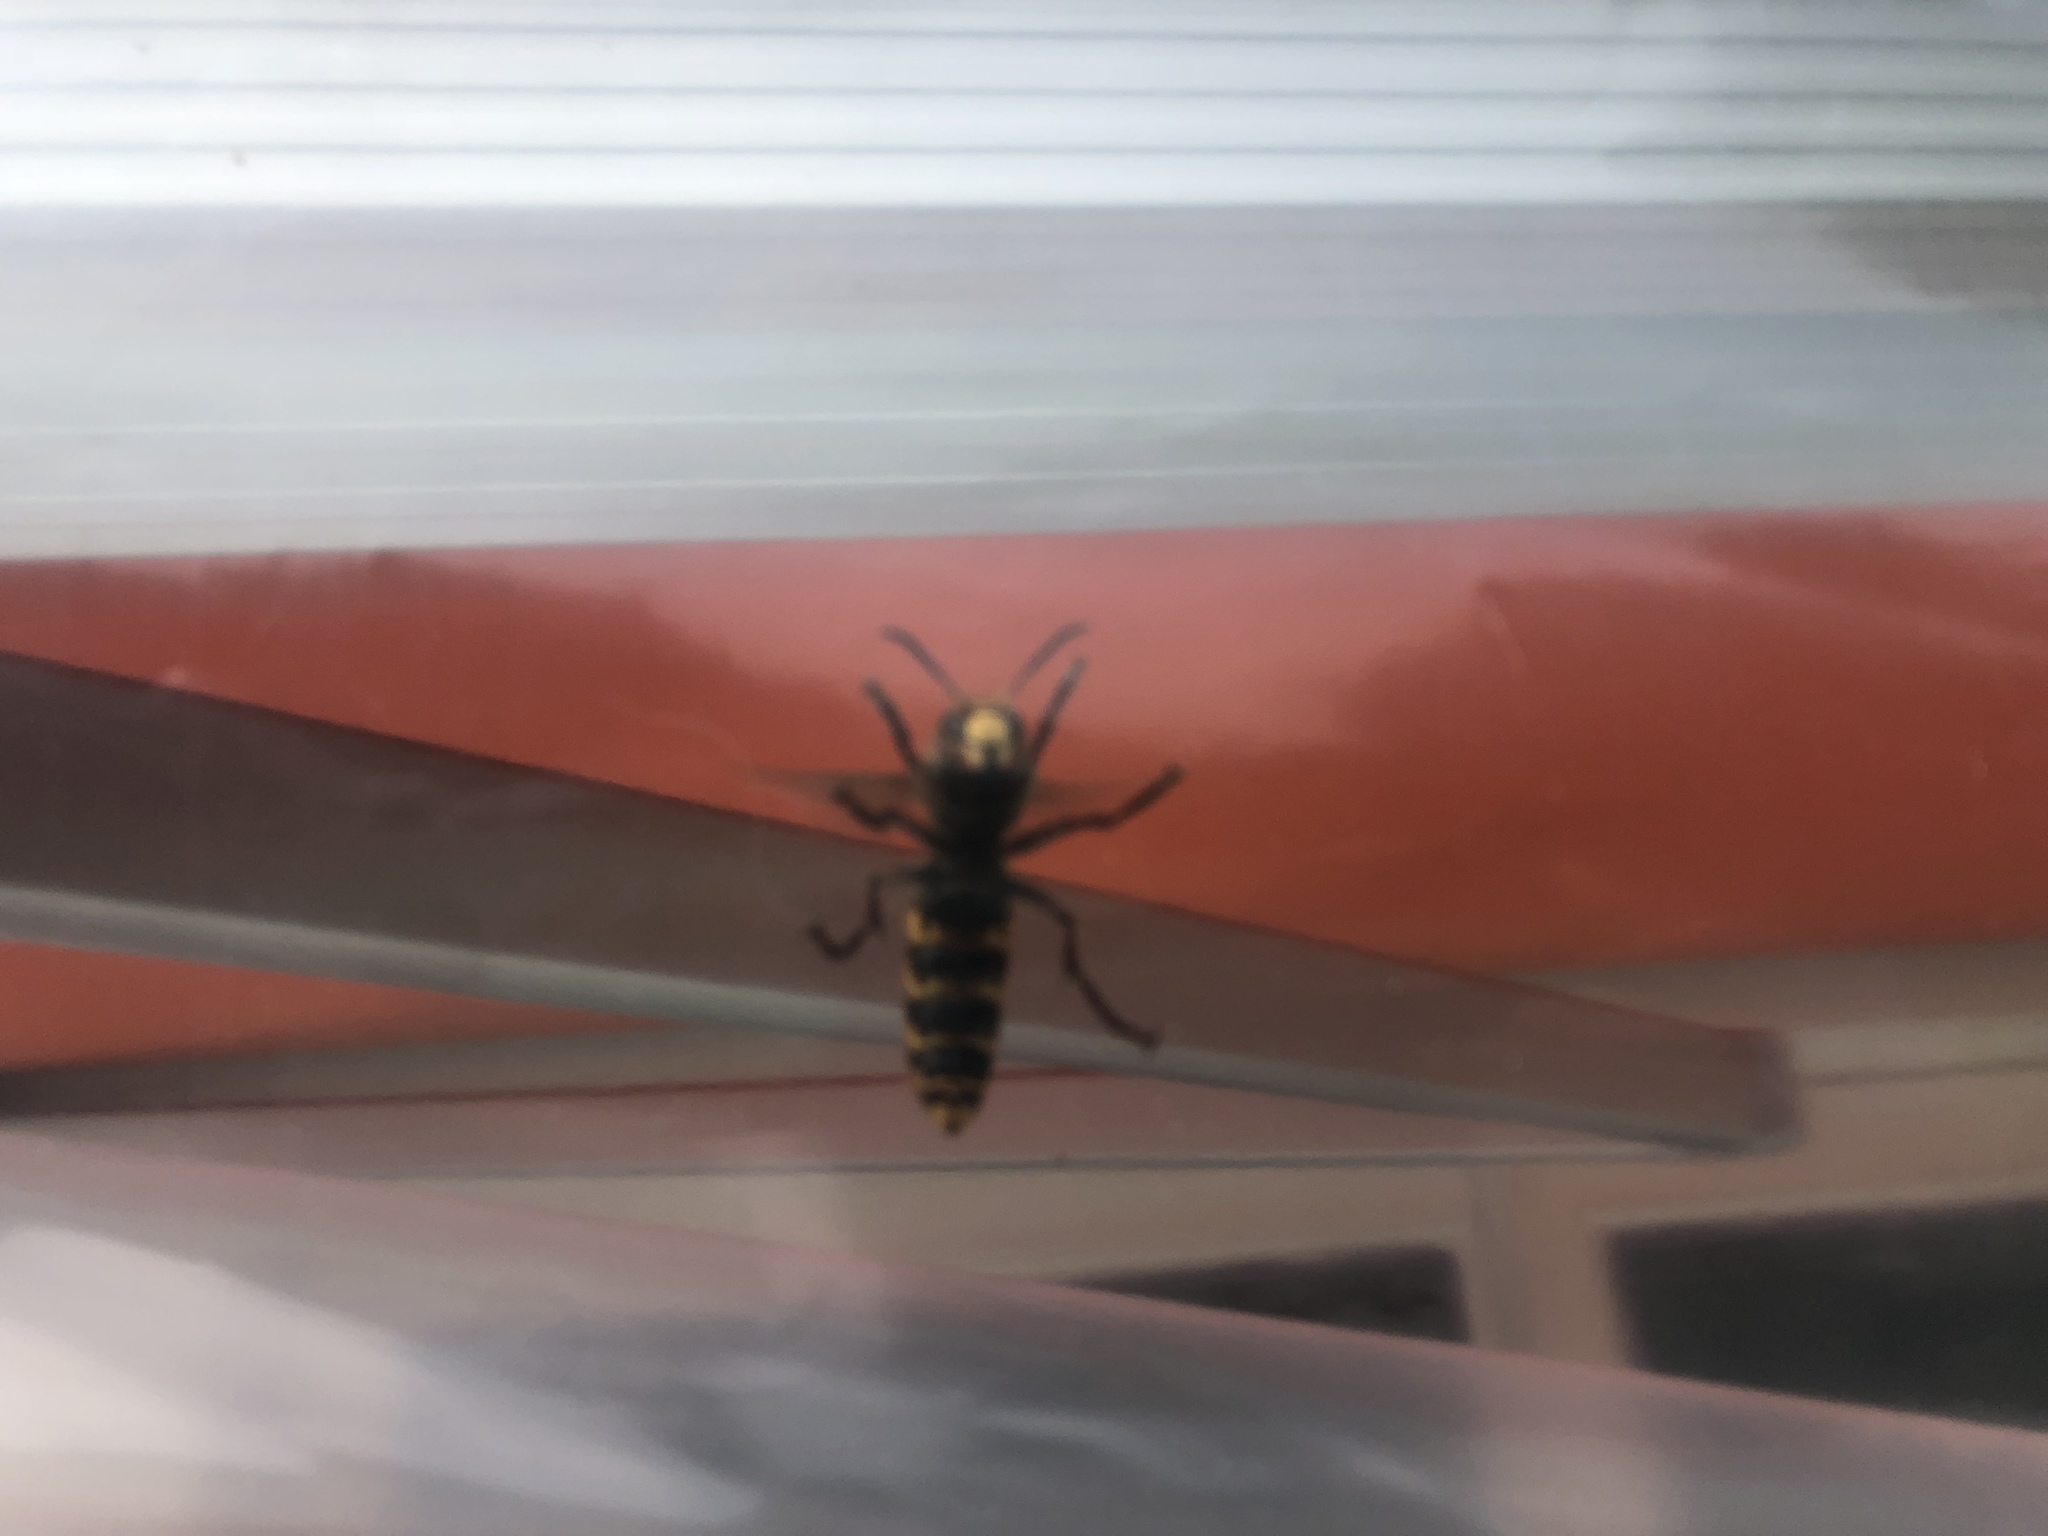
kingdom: Animalia
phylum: Arthropoda
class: Insecta
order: Hymenoptera
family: Vespidae
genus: Vespa
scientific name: Vespa crabro
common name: Hornet
